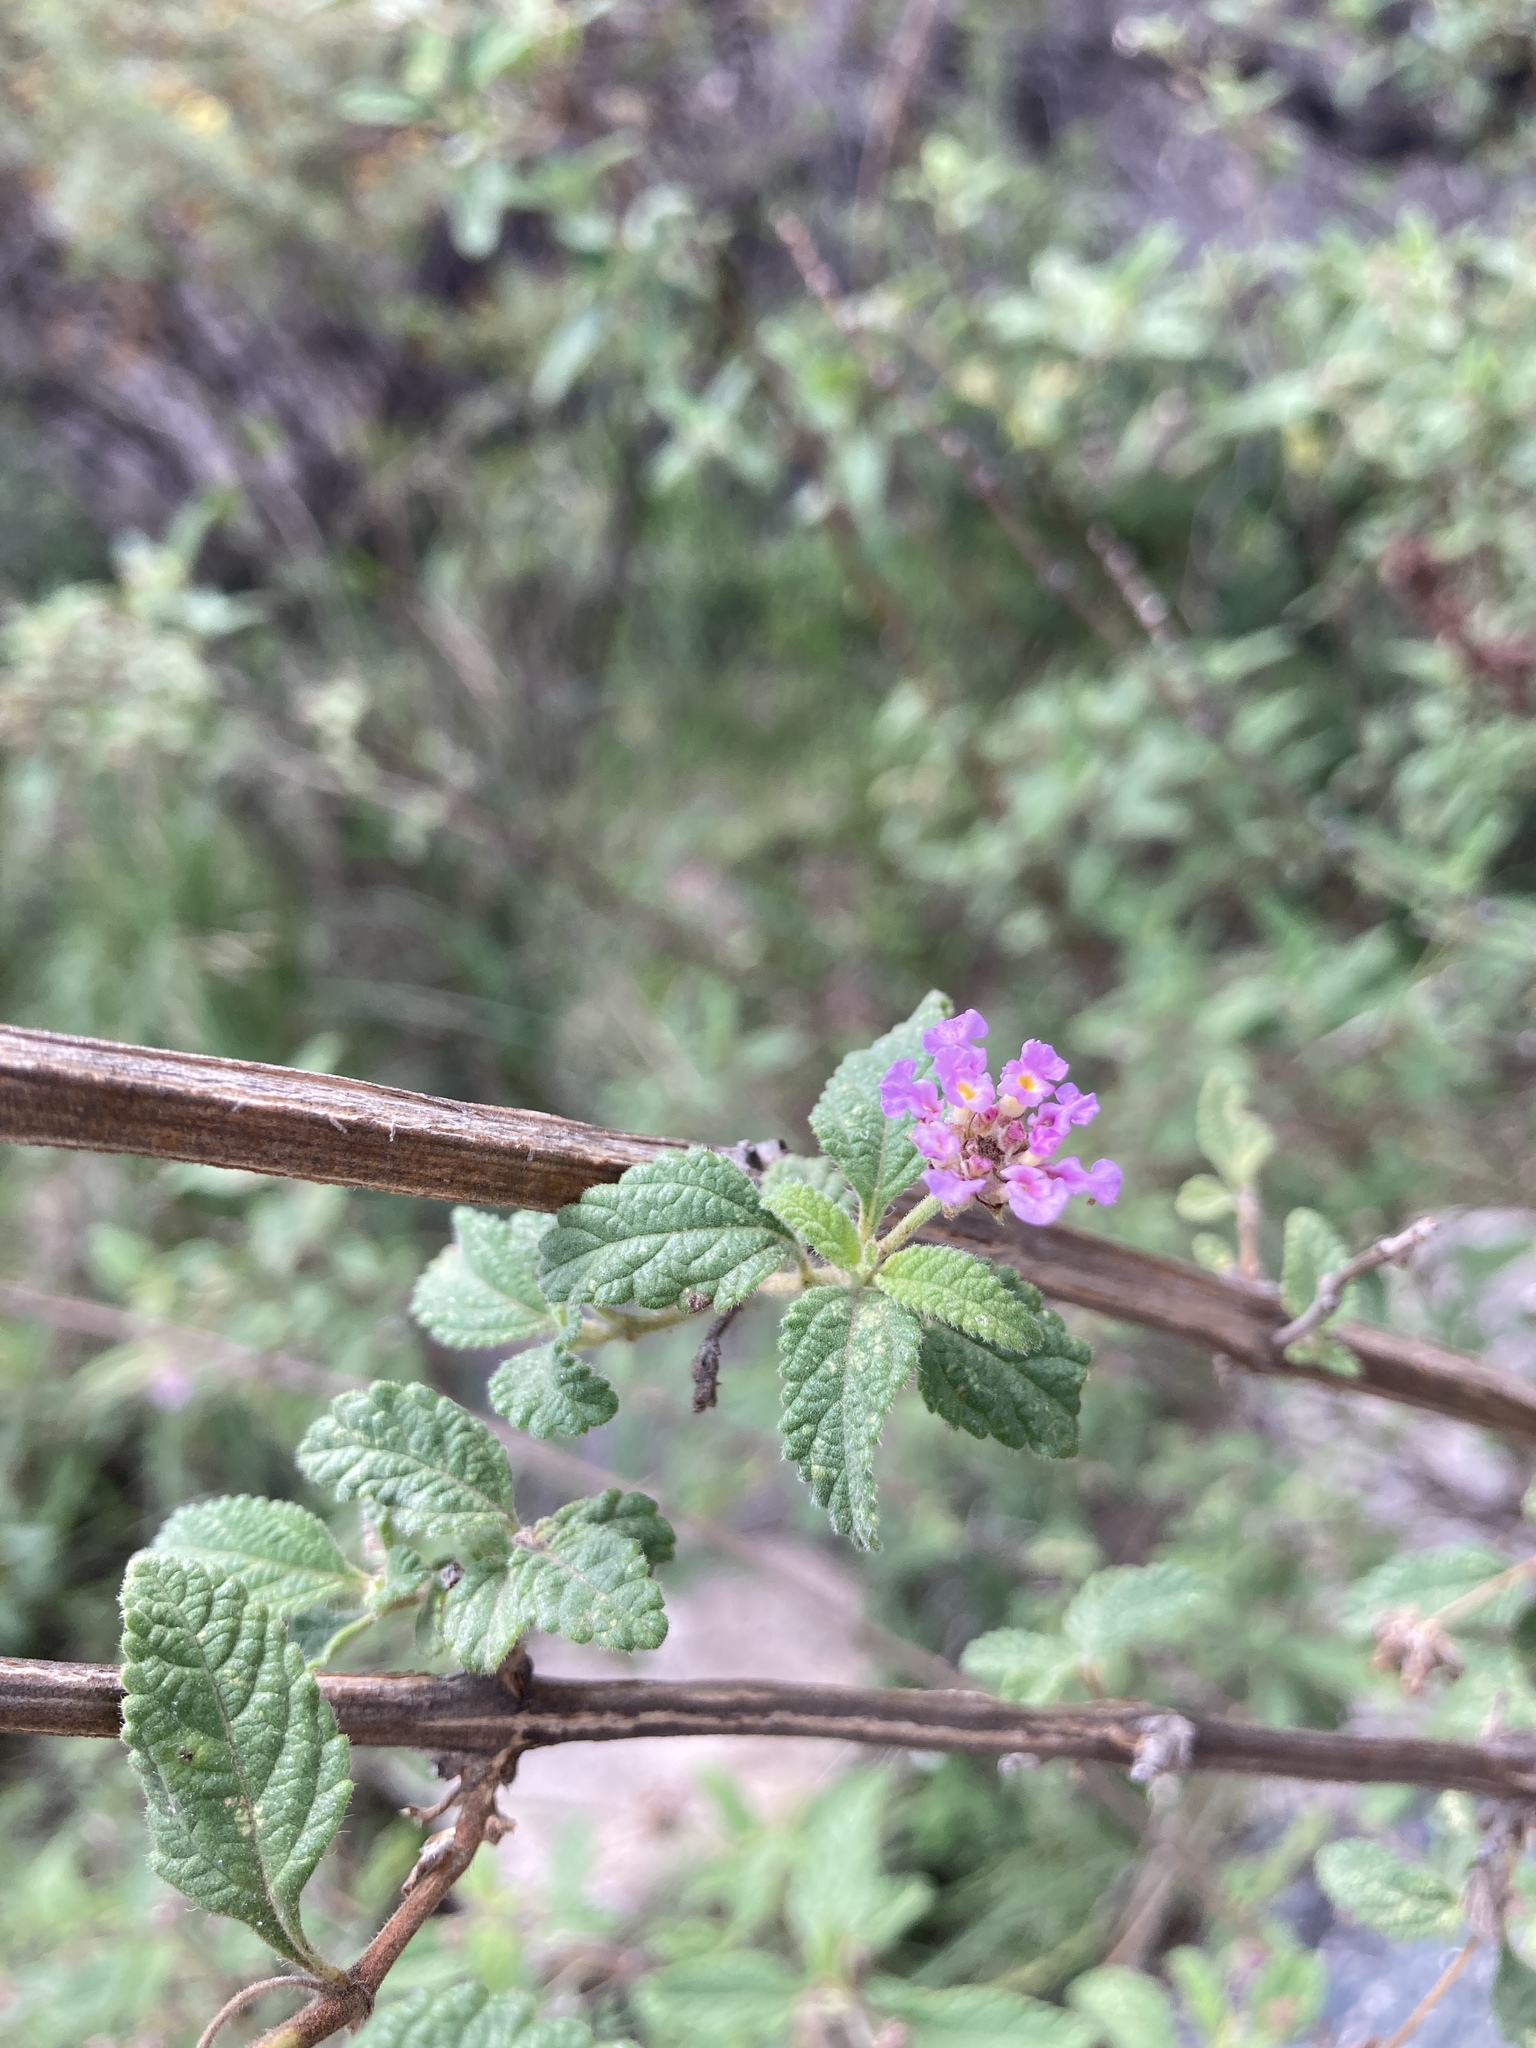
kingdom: Plantae
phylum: Tracheophyta
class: Magnoliopsida
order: Lamiales
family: Verbenaceae
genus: Lantana
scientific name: Lantana fucata
